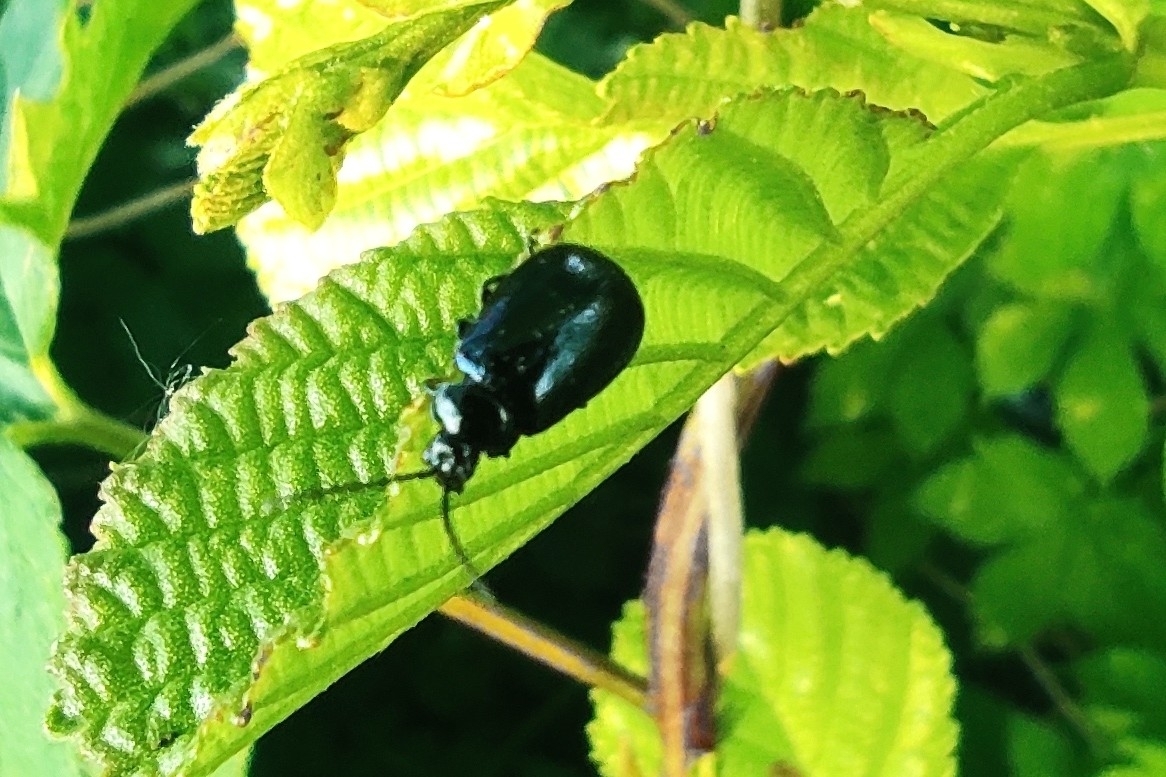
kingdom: Animalia
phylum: Arthropoda
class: Insecta
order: Coleoptera
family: Chrysomelidae
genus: Agelastica
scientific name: Agelastica alni
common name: Alder leaf beetle
